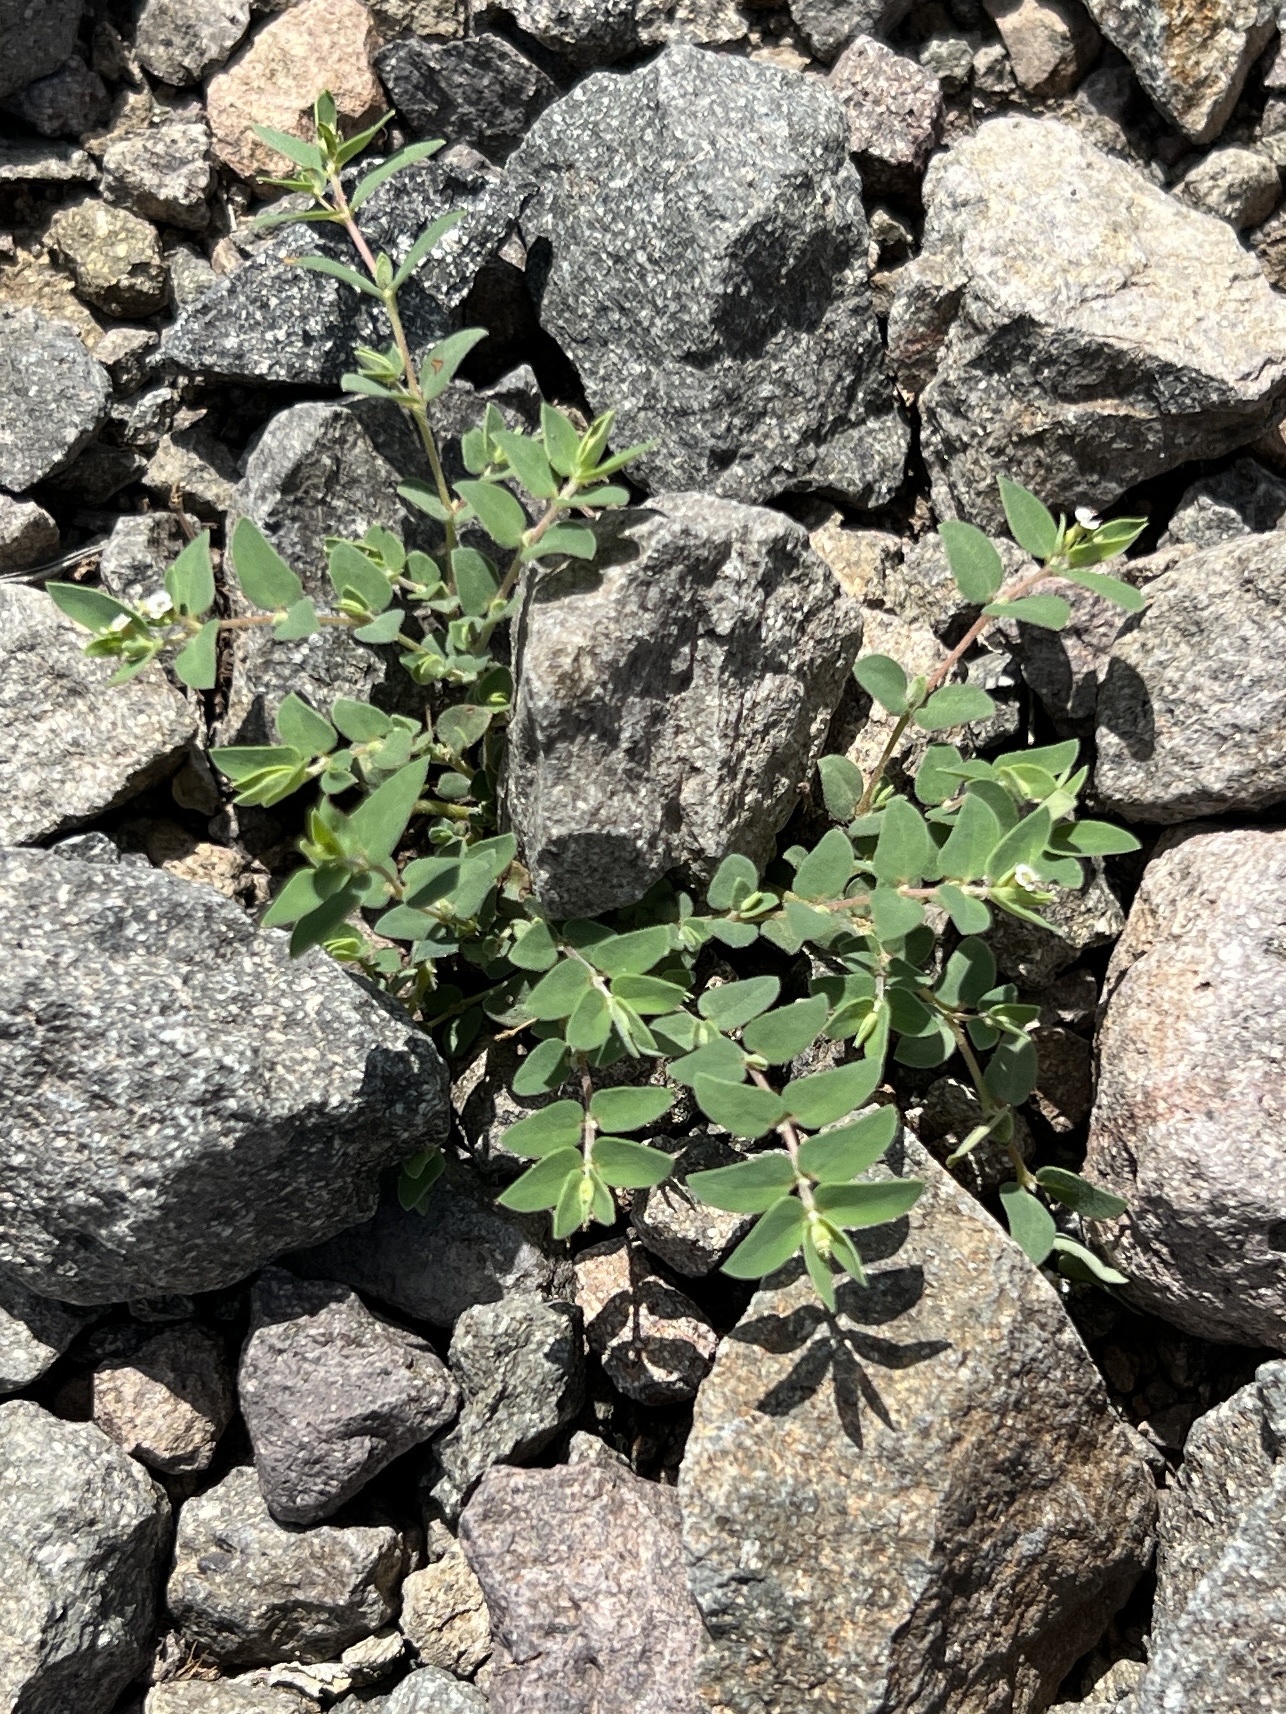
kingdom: Plantae
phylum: Tracheophyta
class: Magnoliopsida
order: Malpighiales
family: Euphorbiaceae
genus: Euphorbia
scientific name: Euphorbia capitellata
